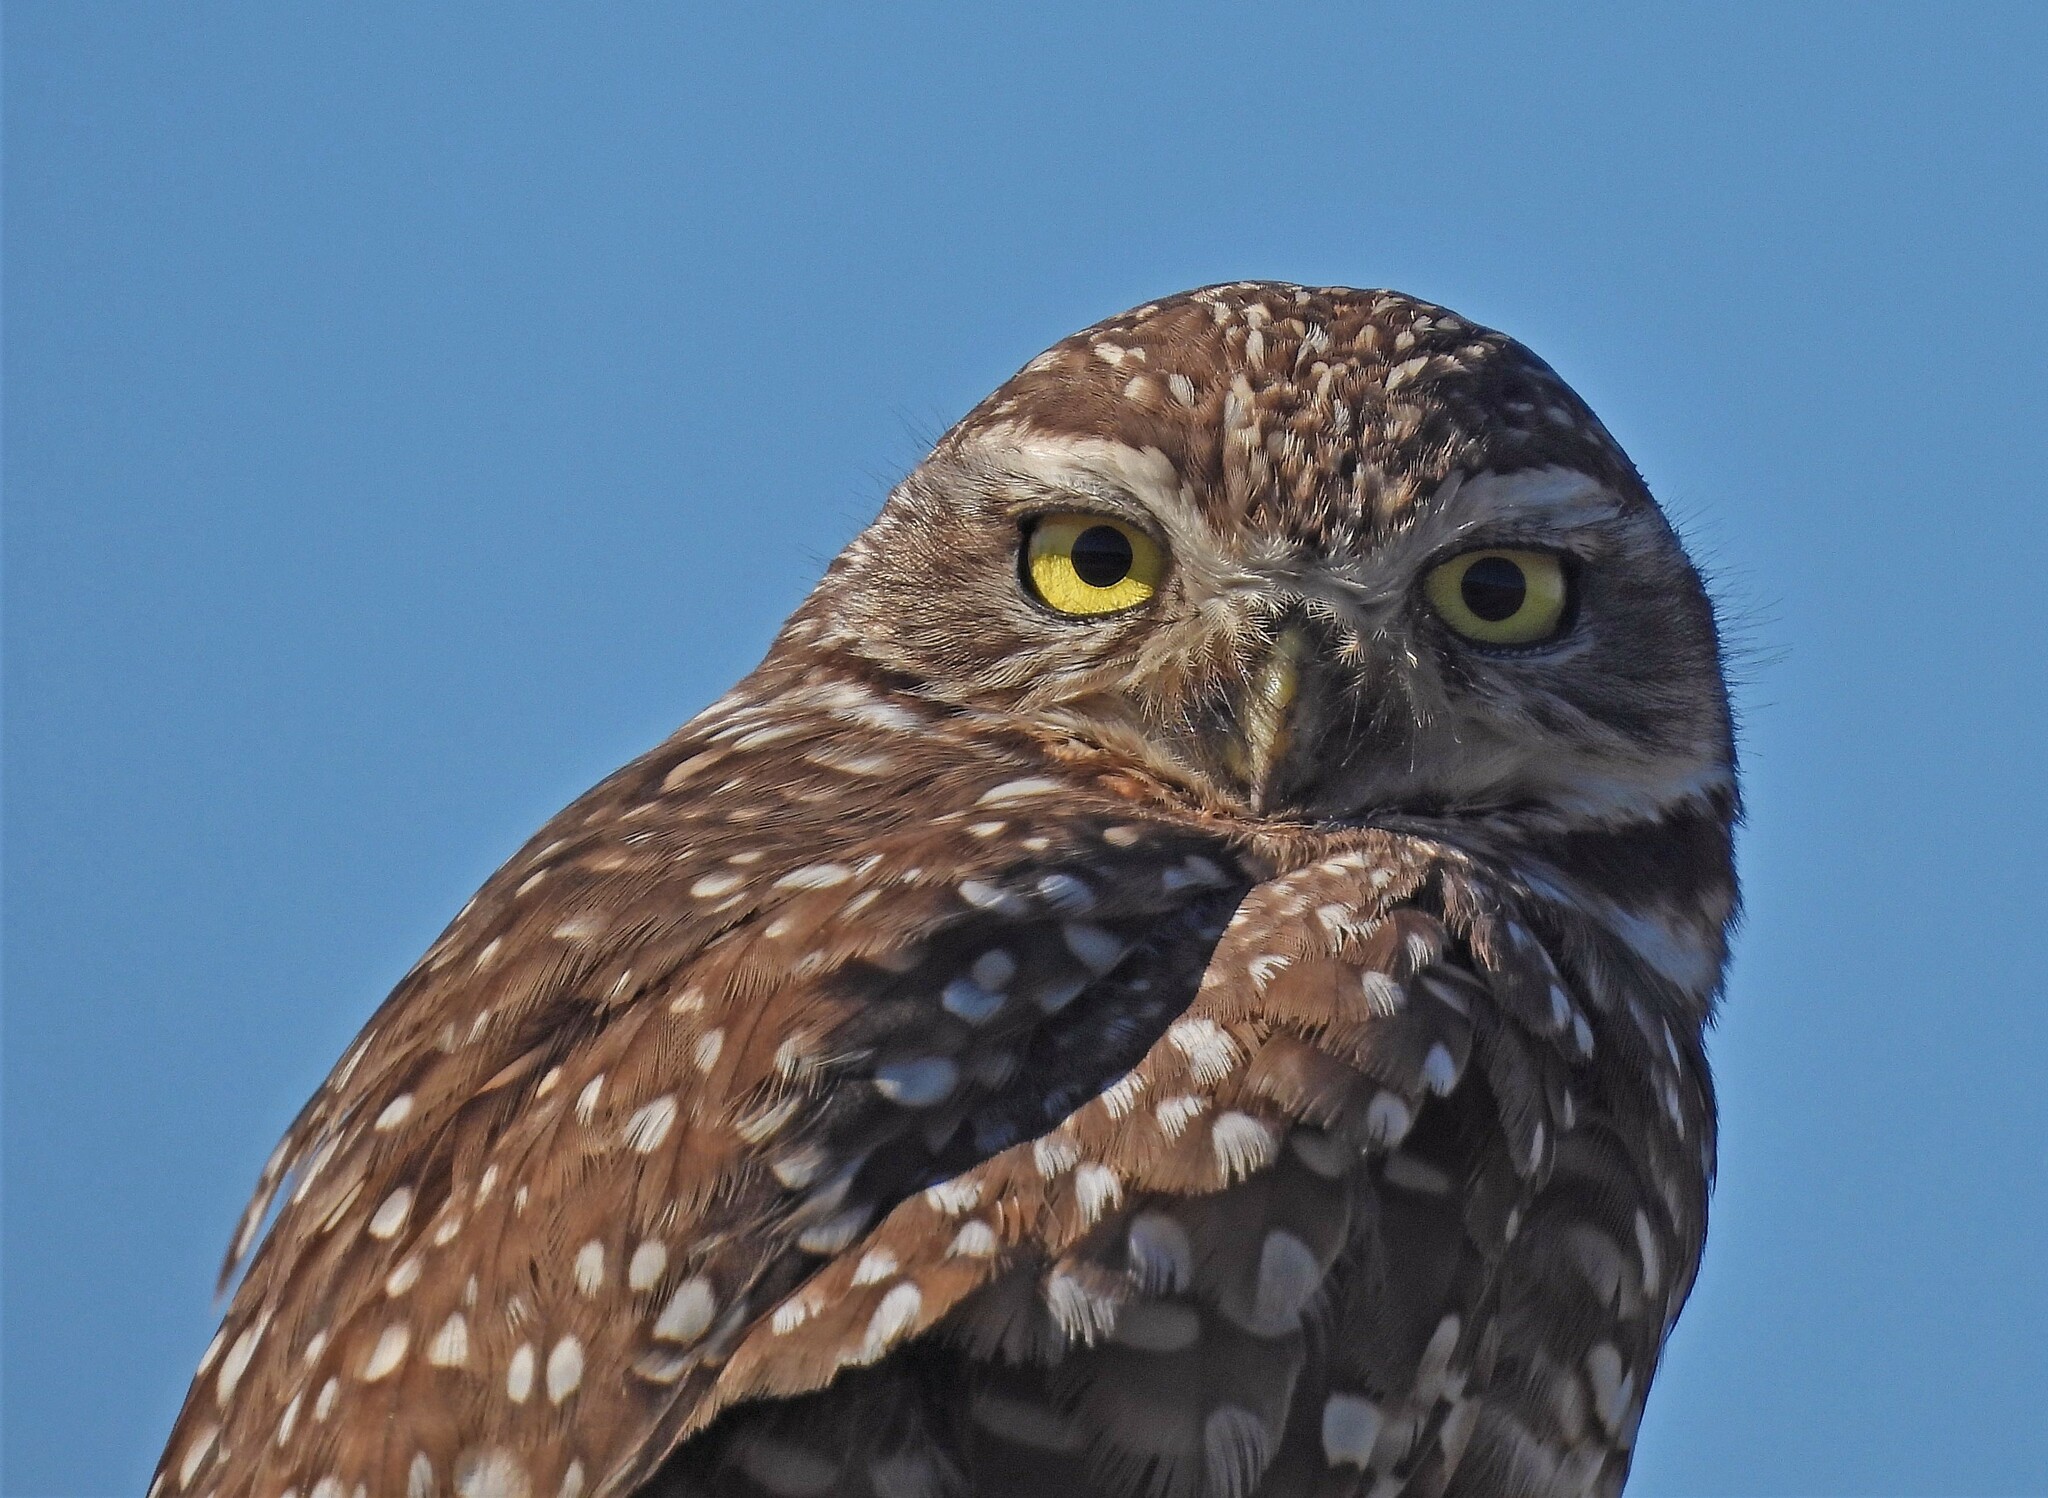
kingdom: Animalia
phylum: Chordata
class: Aves
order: Strigiformes
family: Strigidae
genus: Athene
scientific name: Athene cunicularia
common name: Burrowing owl
